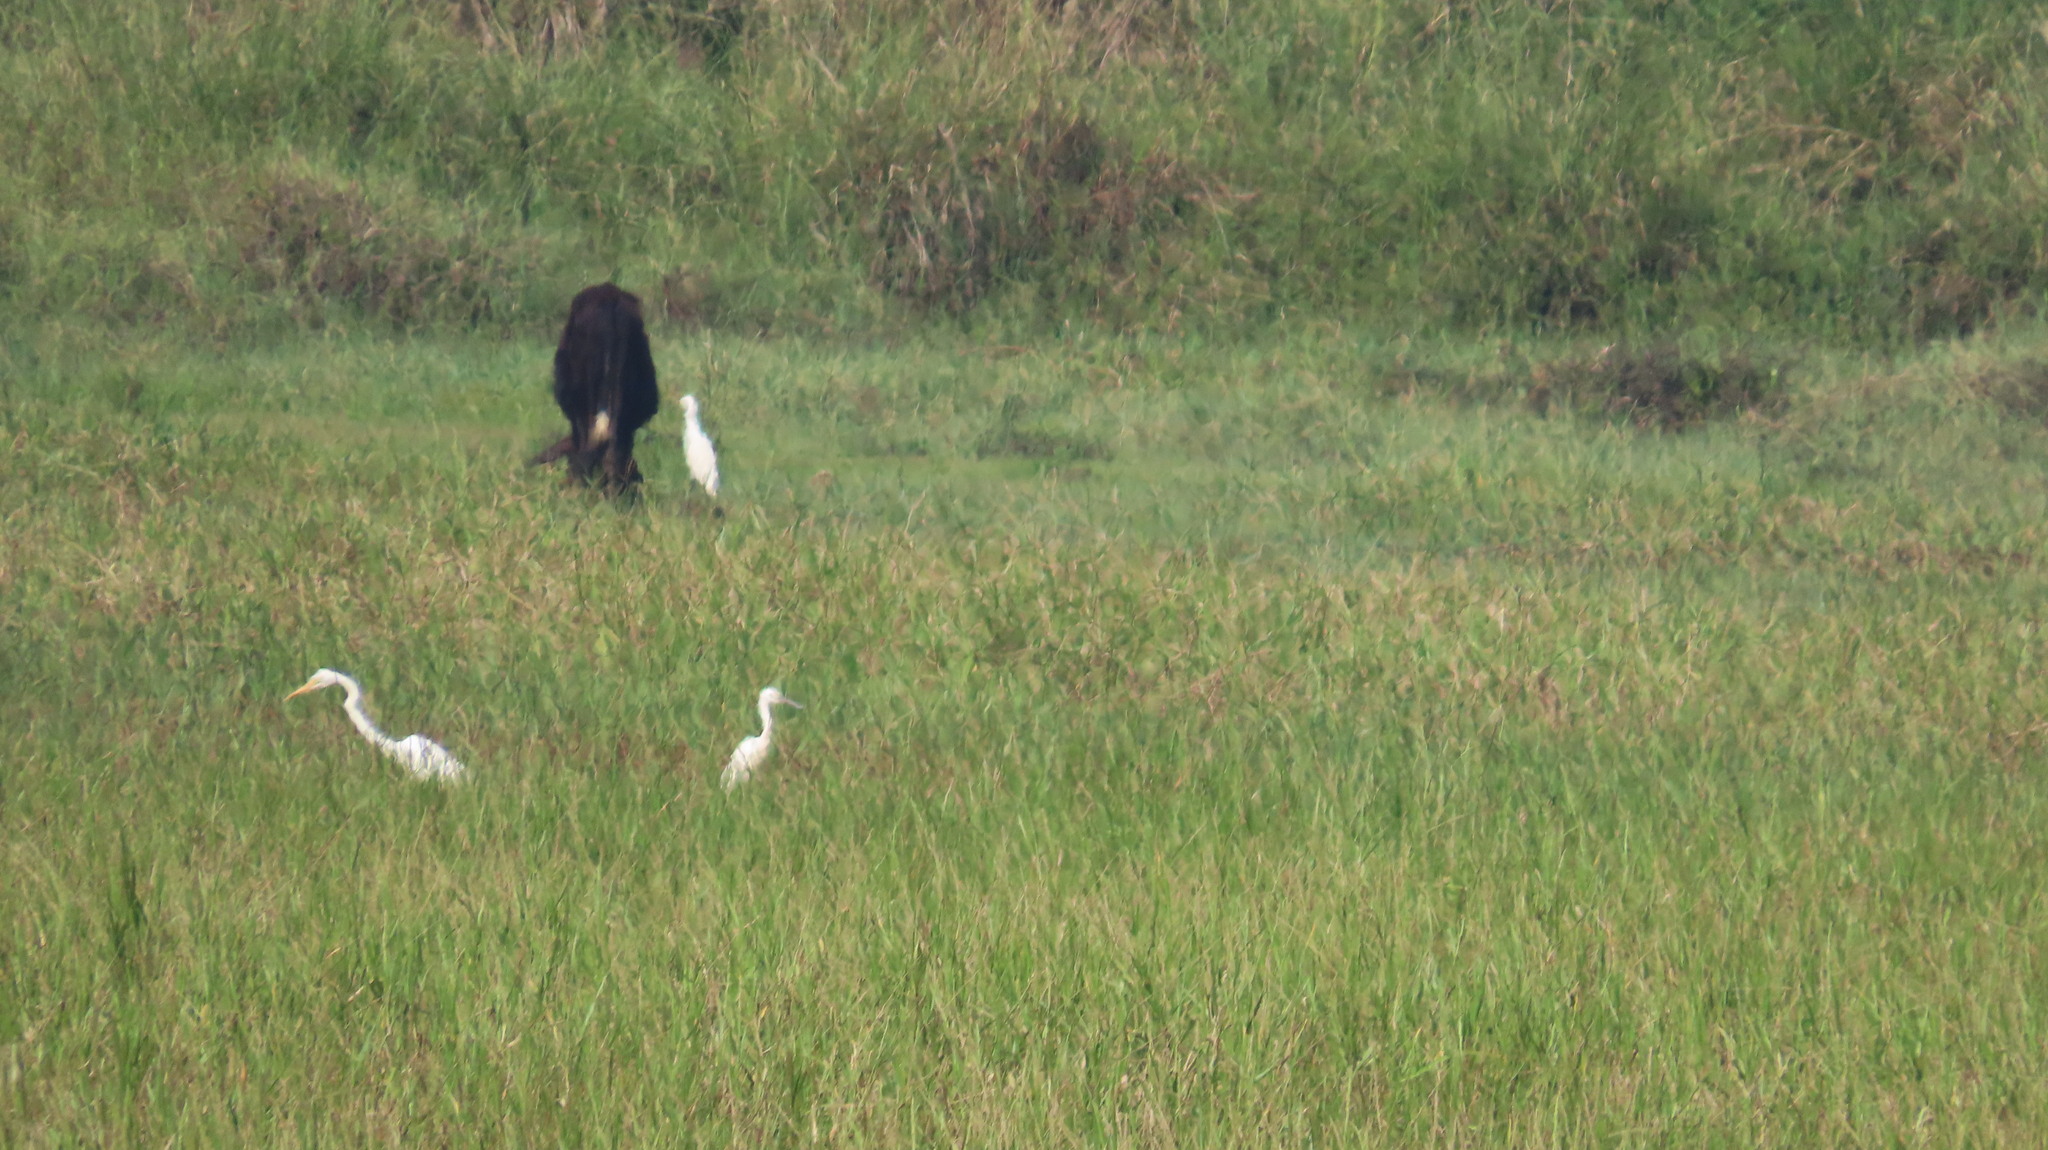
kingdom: Animalia
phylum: Chordata
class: Aves
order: Pelecaniformes
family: Ardeidae
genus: Ardea
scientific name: Ardea alba
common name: Great egret
